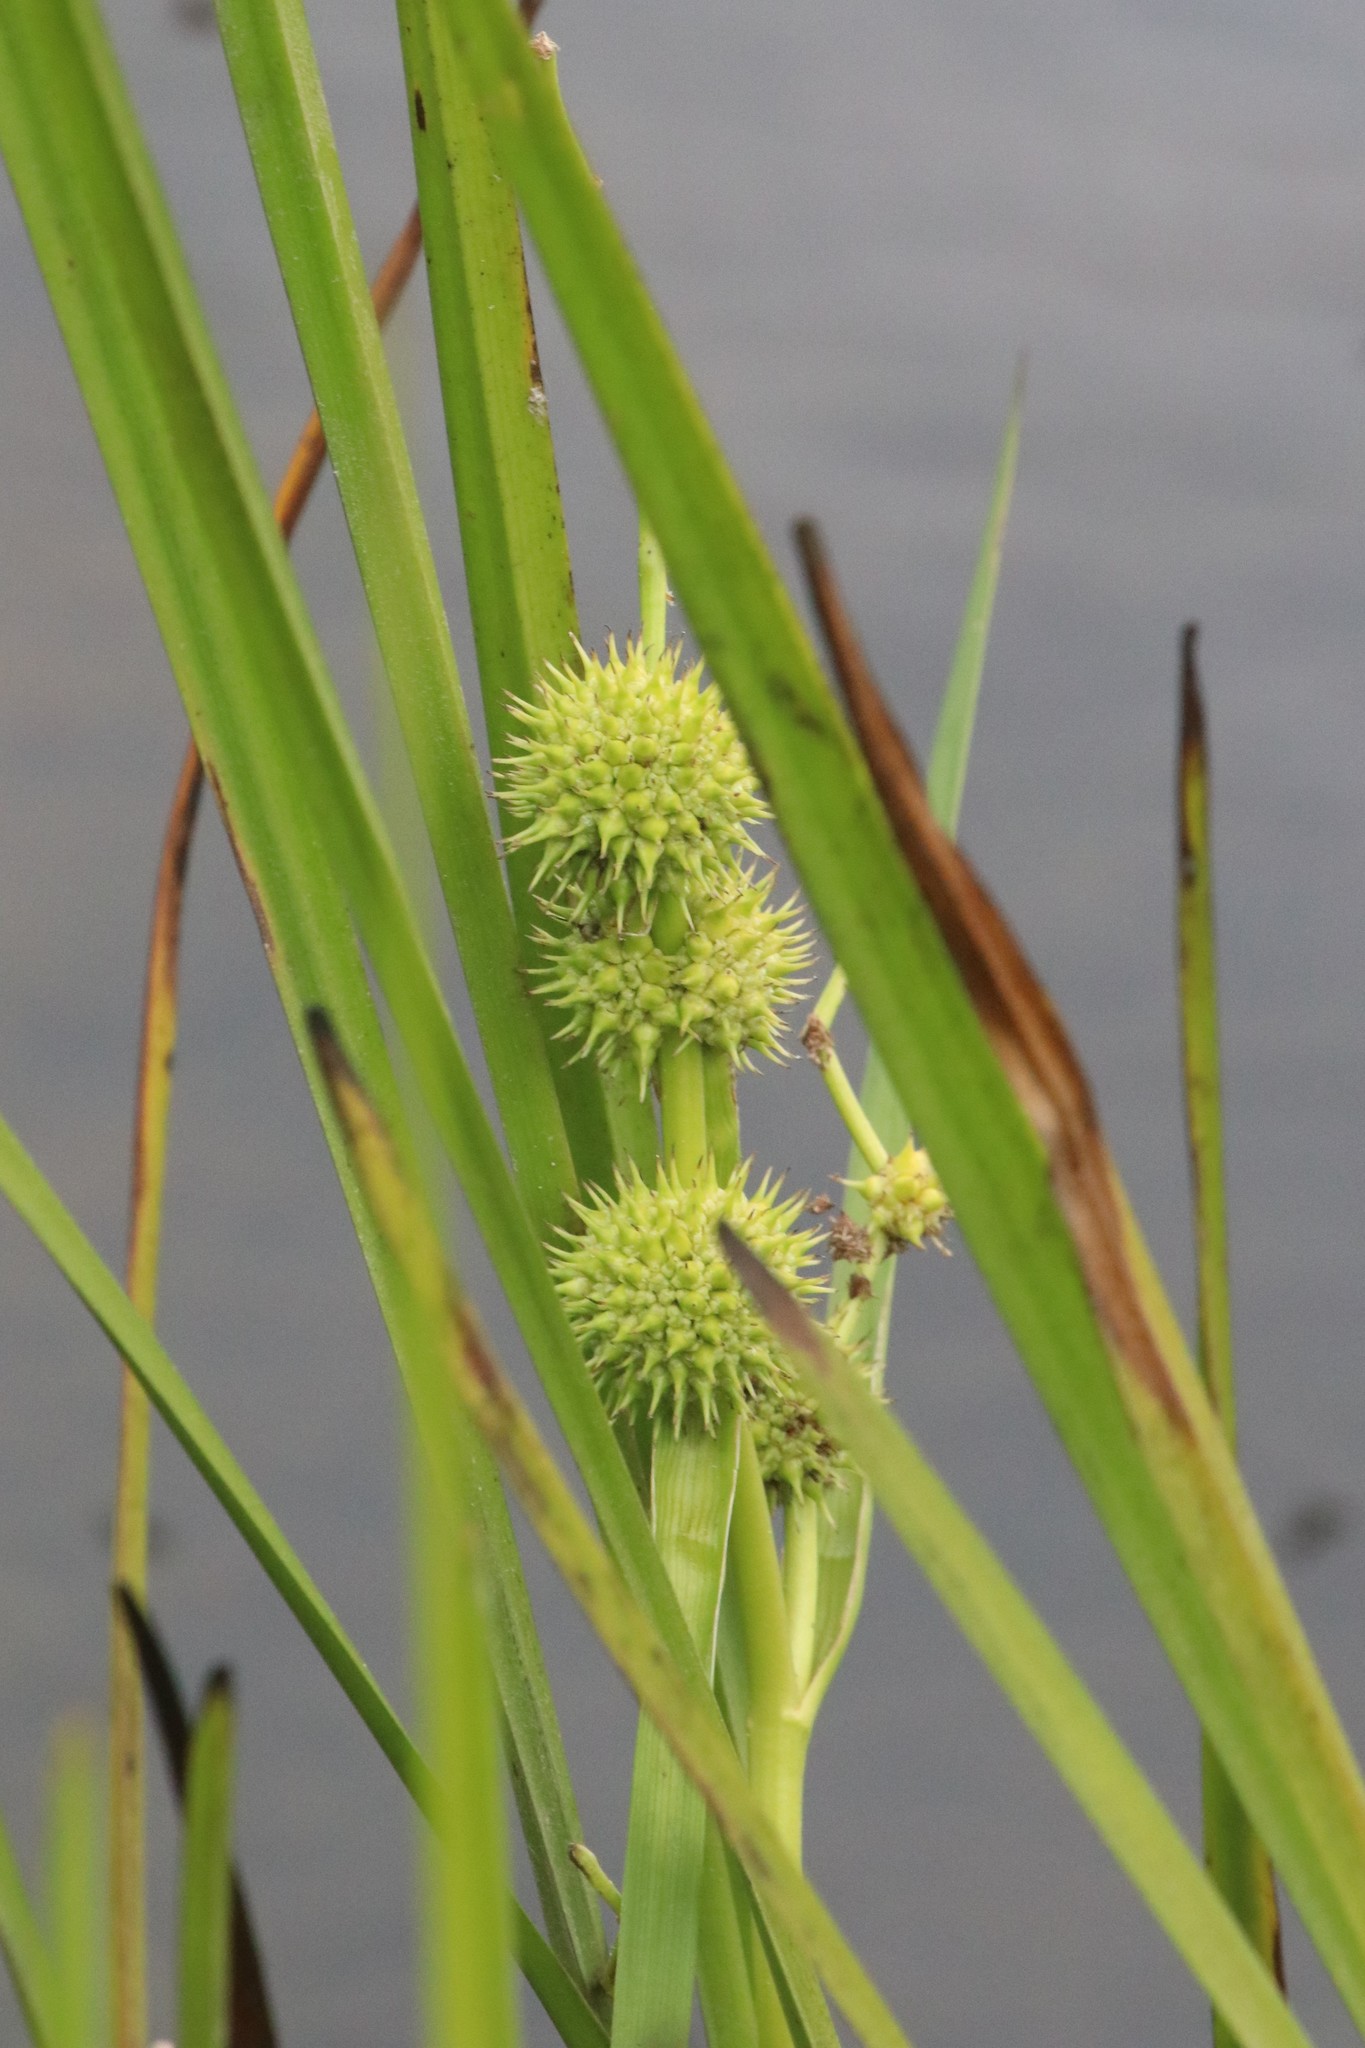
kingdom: Plantae
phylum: Tracheophyta
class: Liliopsida
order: Poales
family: Typhaceae
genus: Sparganium
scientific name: Sparganium americanum
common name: American burreed
